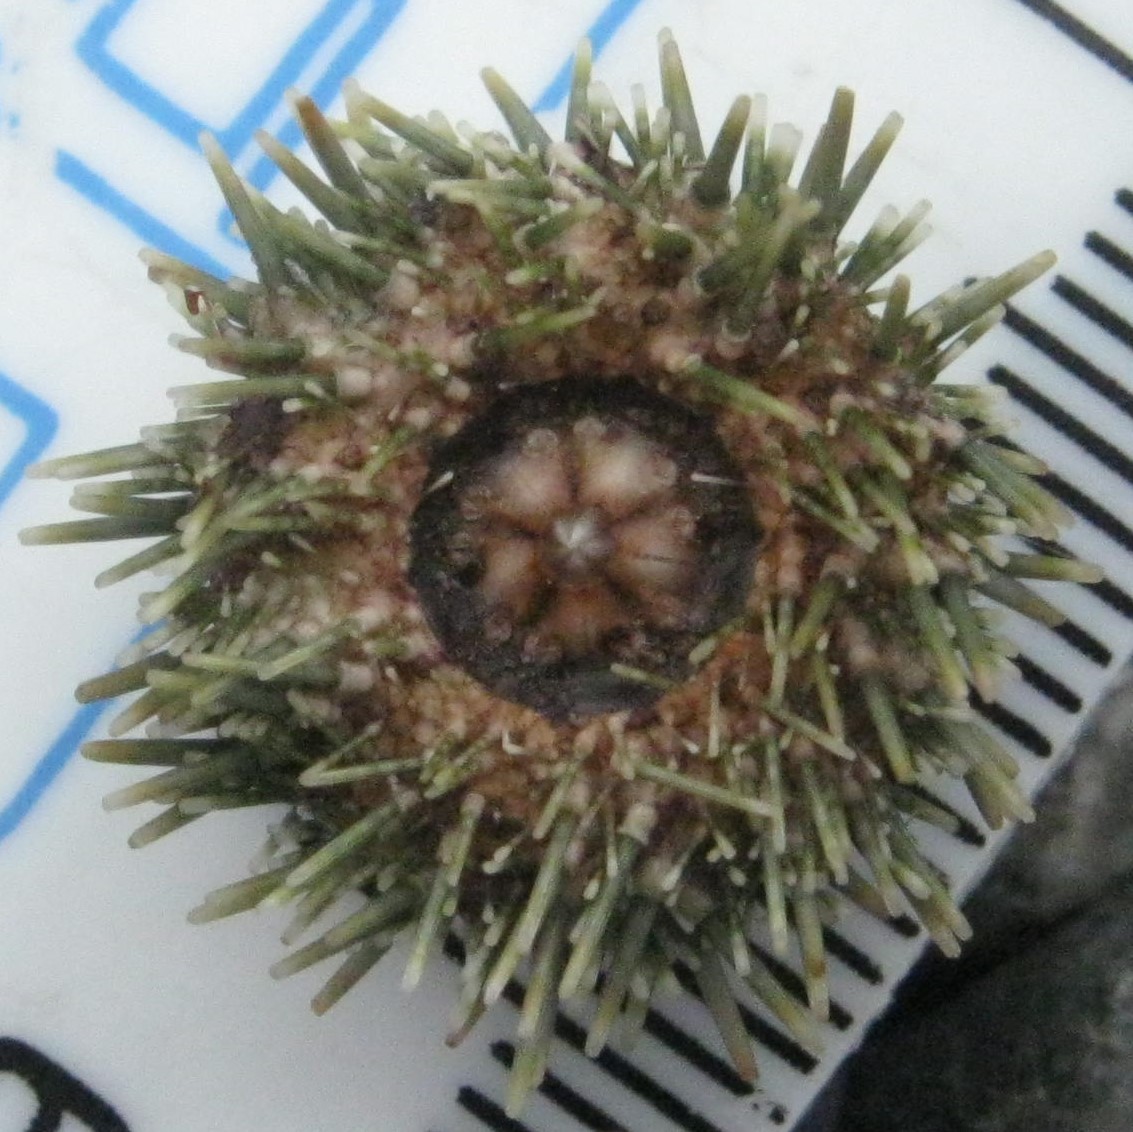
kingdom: Animalia
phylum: Echinodermata
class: Echinoidea
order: Camarodonta
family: Echinometridae
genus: Evechinus
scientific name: Evechinus chloroticus
